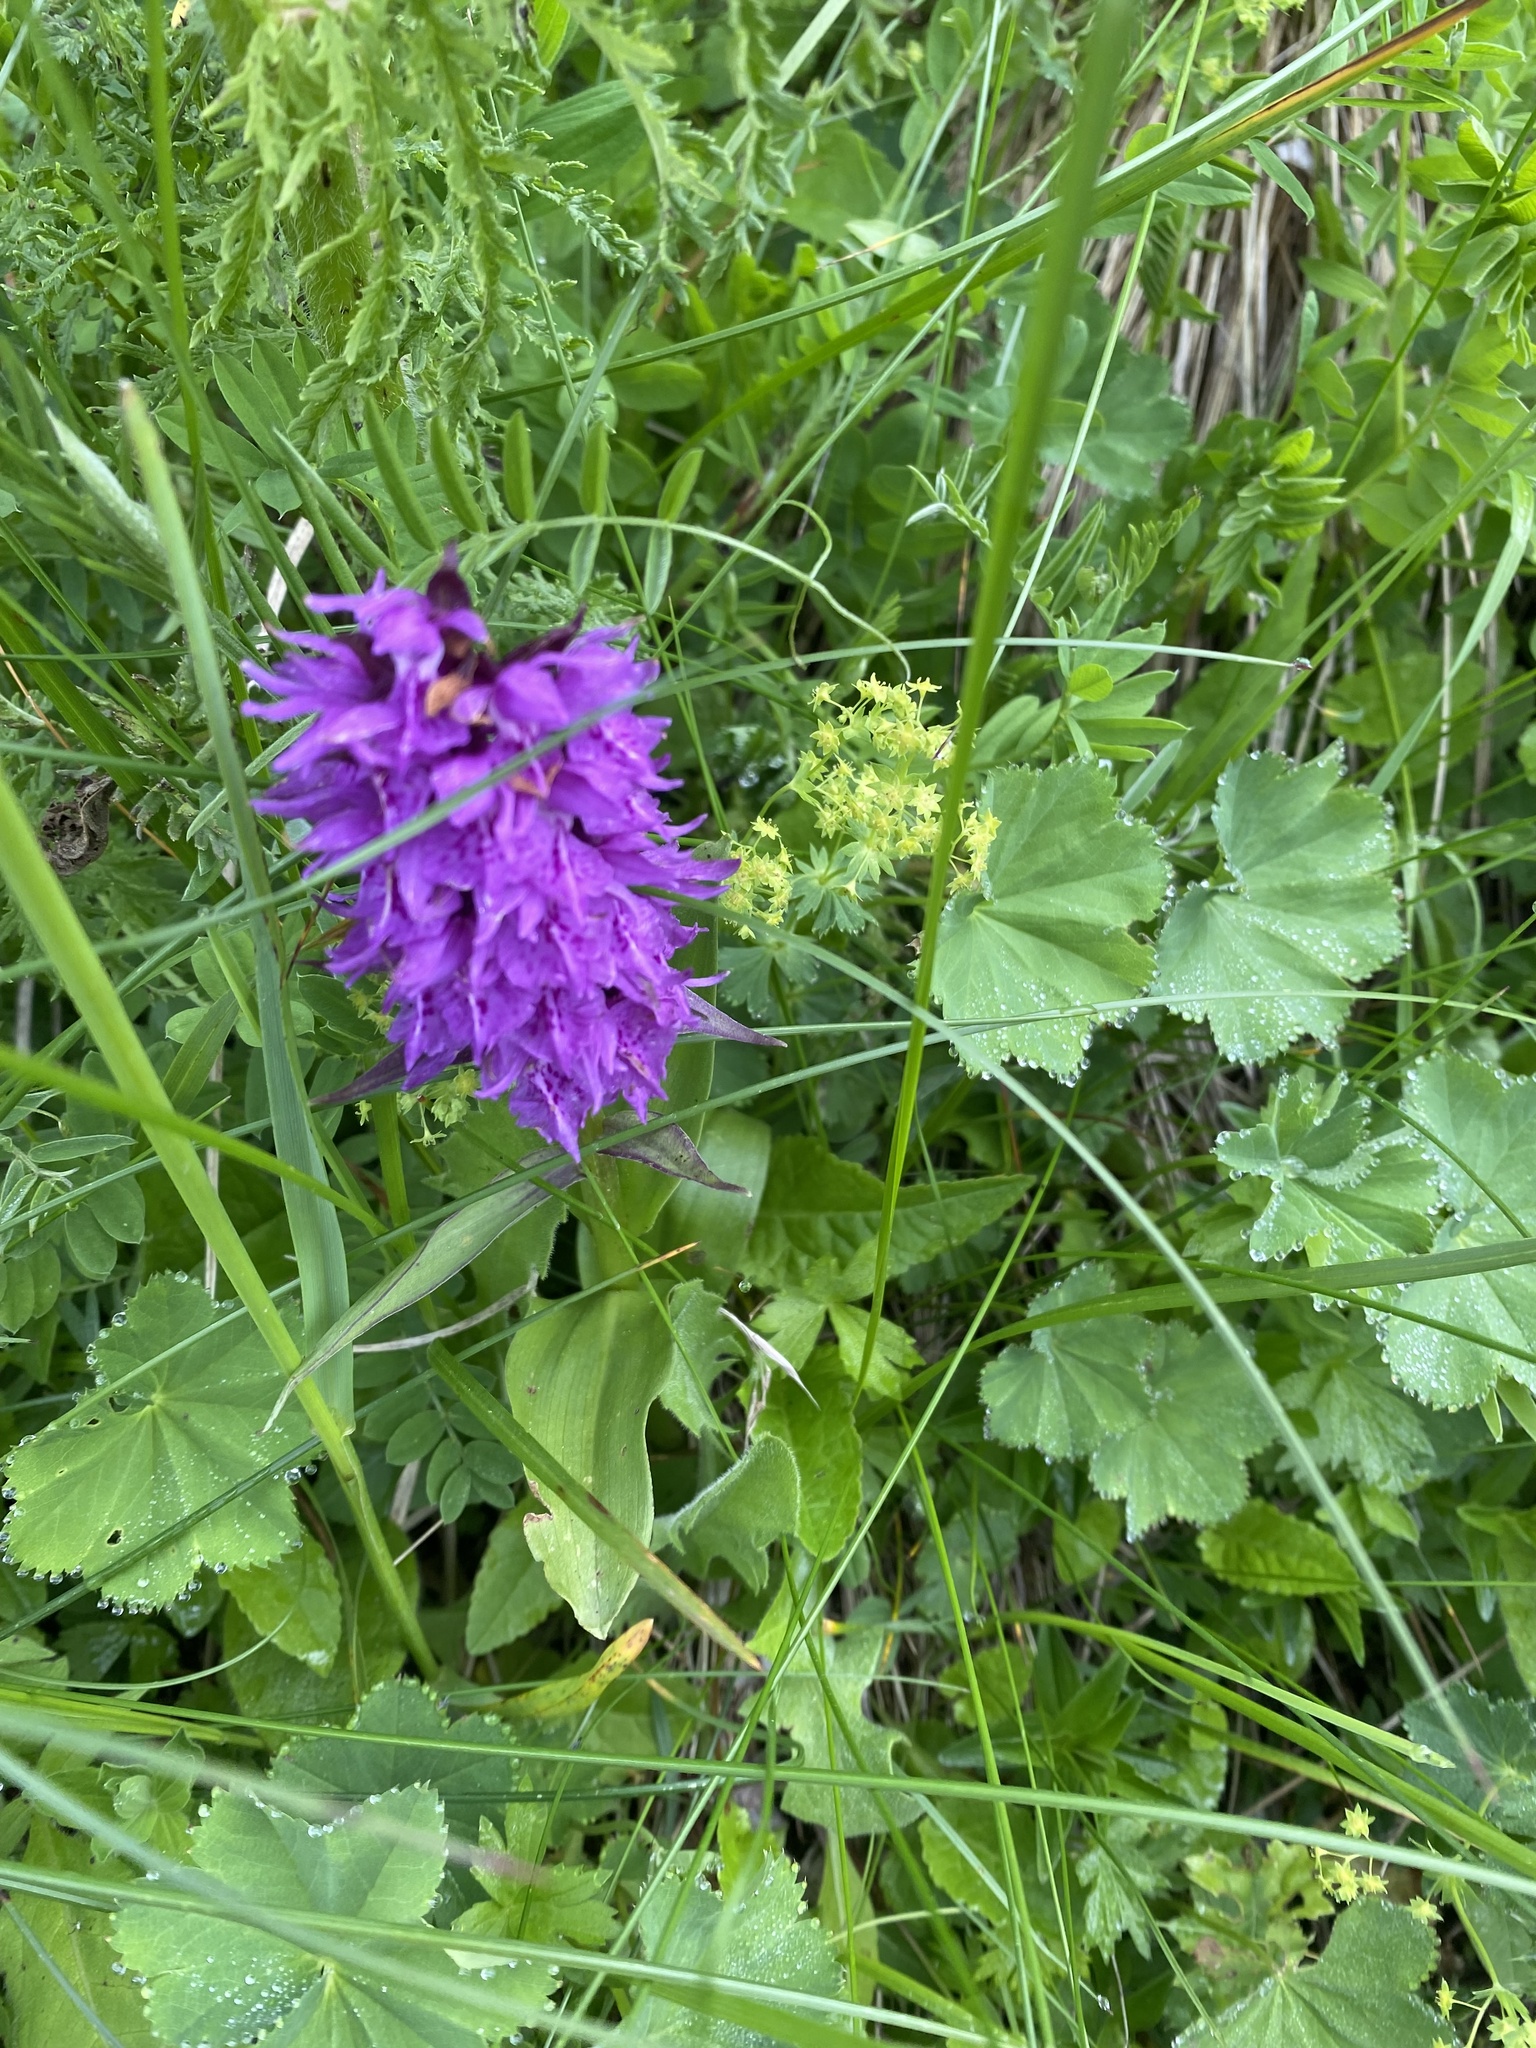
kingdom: Plantae
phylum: Tracheophyta
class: Liliopsida
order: Asparagales
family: Orchidaceae
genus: Dactylorhiza
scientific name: Dactylorhiza euxina
